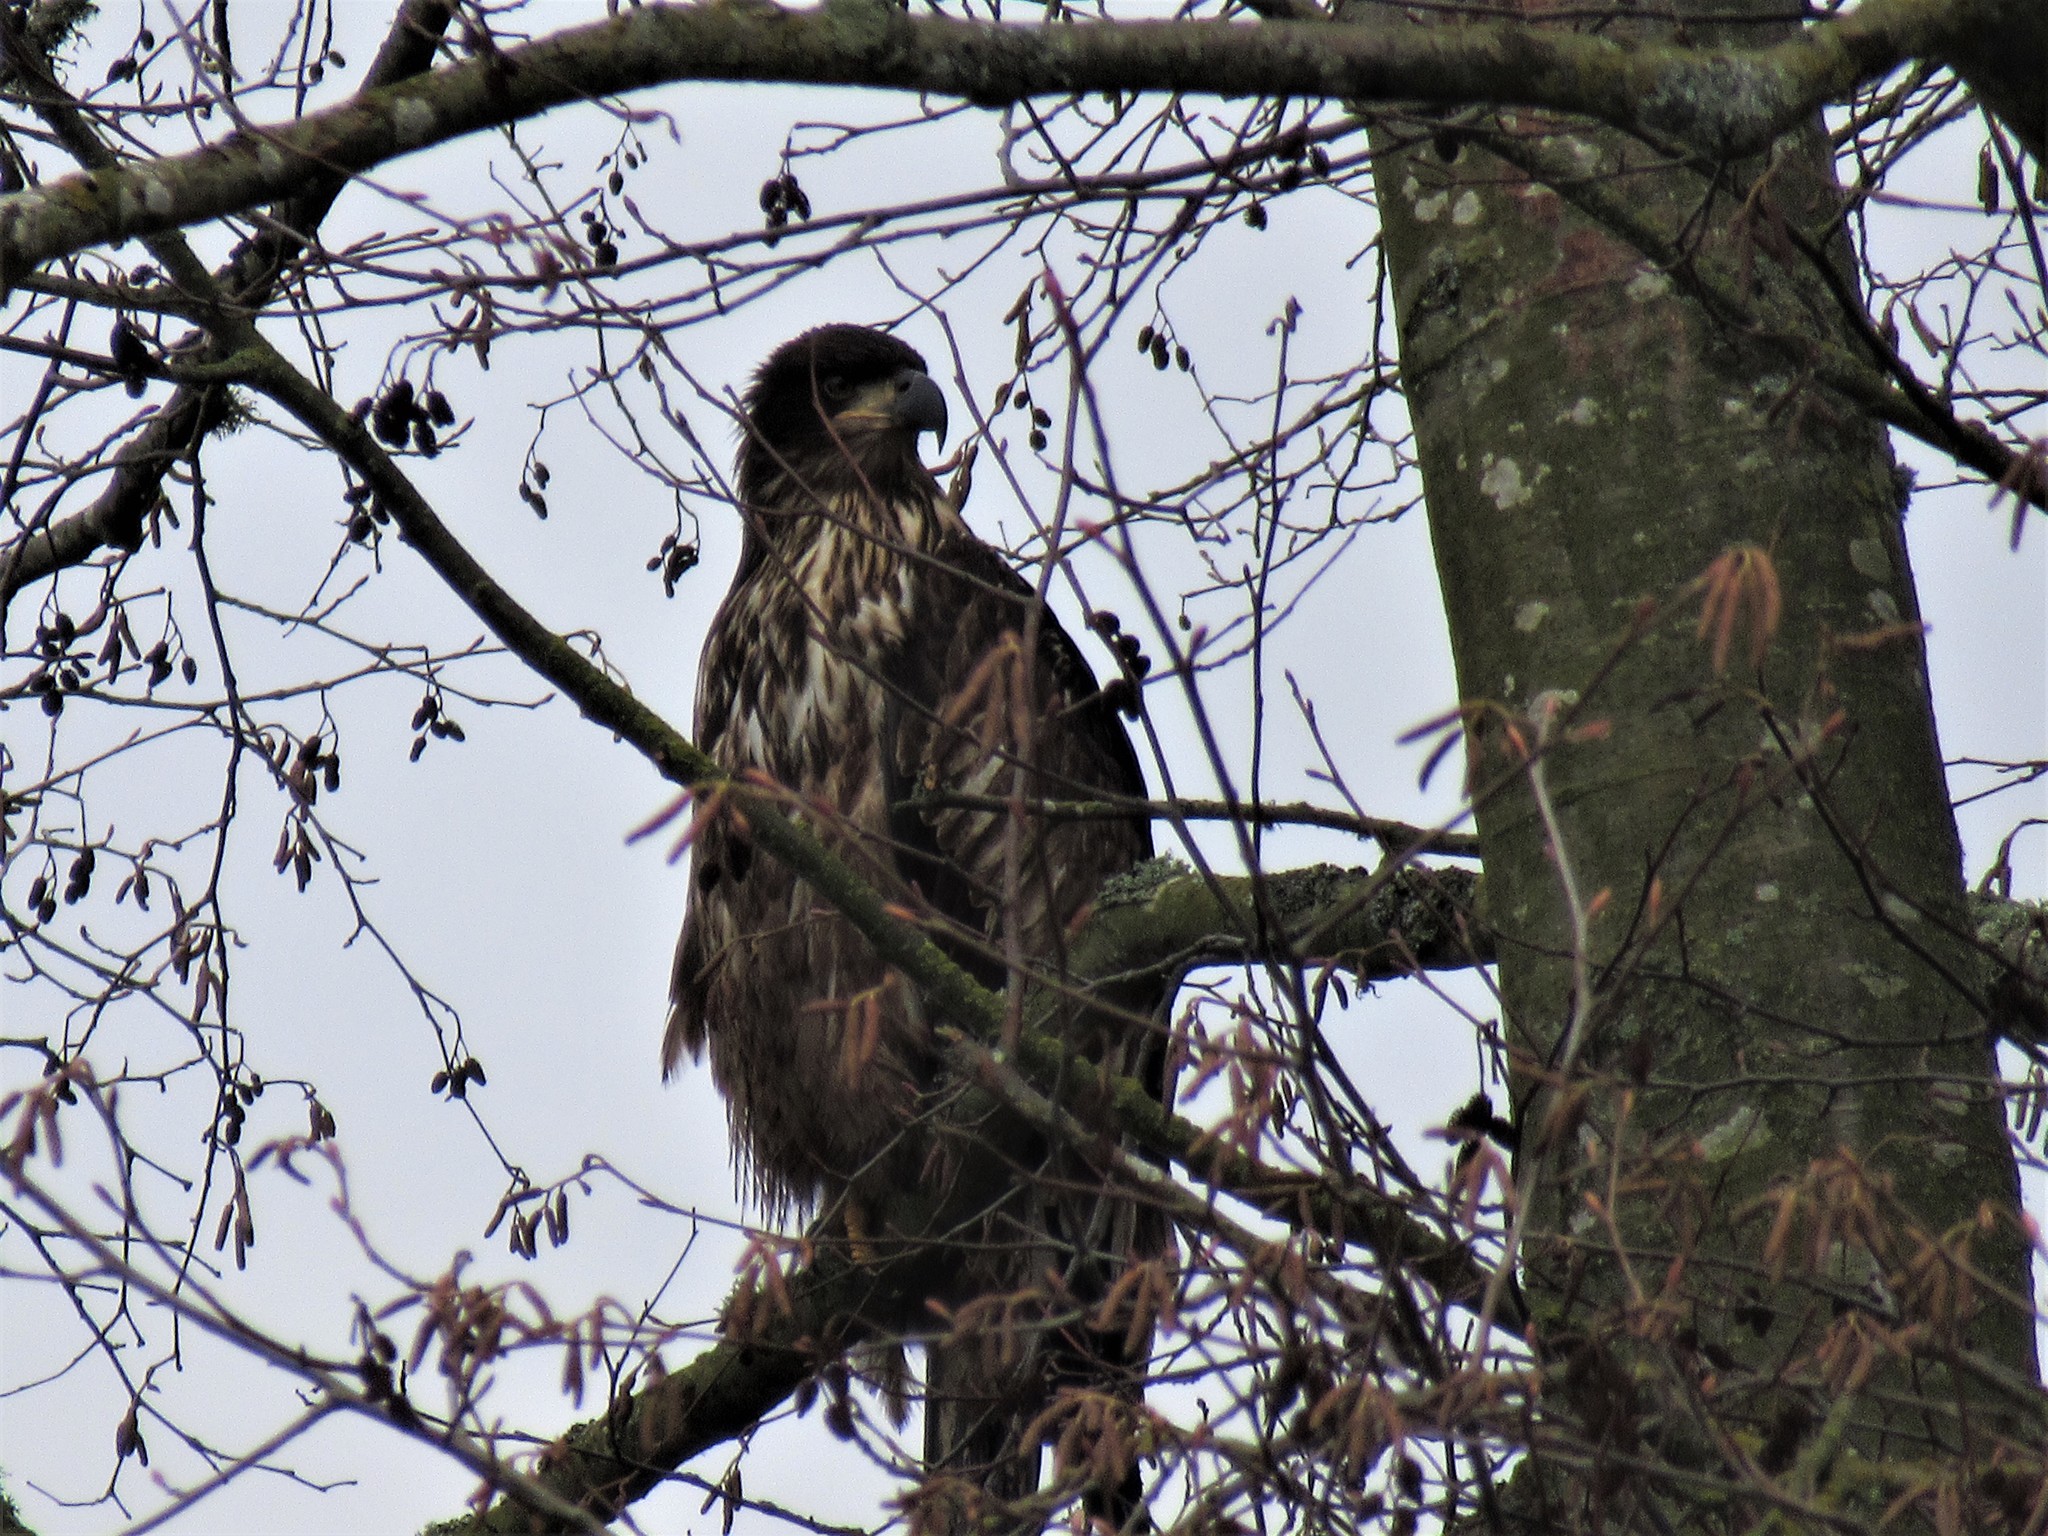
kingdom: Animalia
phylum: Chordata
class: Aves
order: Accipitriformes
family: Accipitridae
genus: Haliaeetus
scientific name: Haliaeetus leucocephalus
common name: Bald eagle
